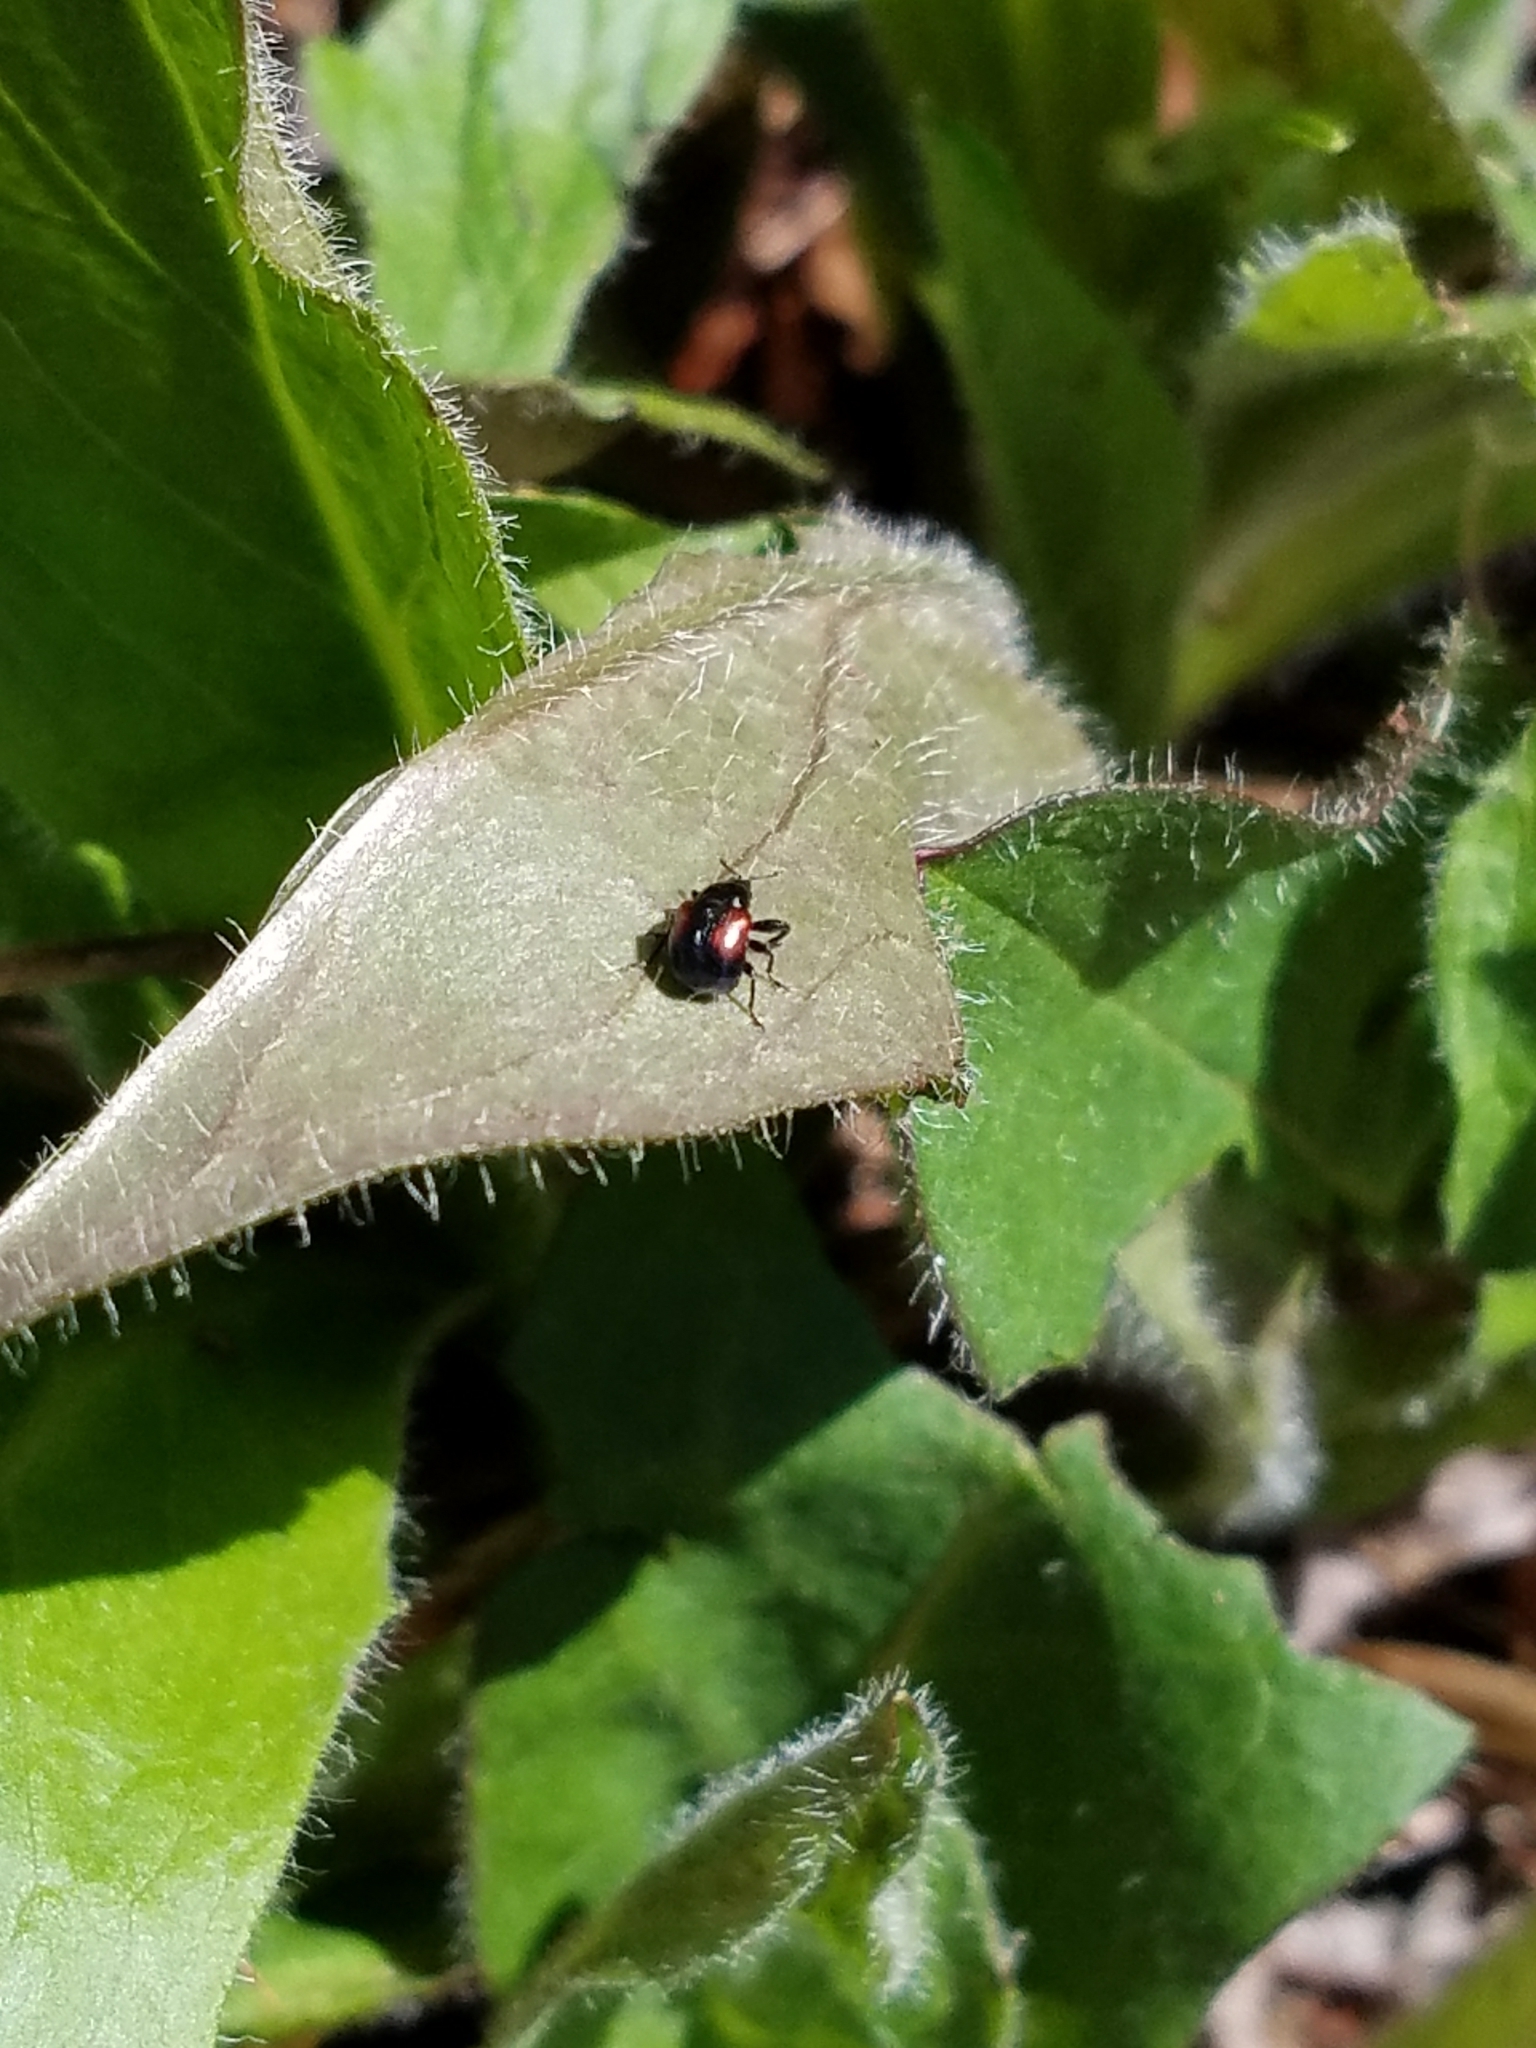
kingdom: Animalia
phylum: Arthropoda
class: Insecta
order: Coleoptera
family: Scarabaeidae
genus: Popillia
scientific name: Popillia japonica
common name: Japanese beetle
